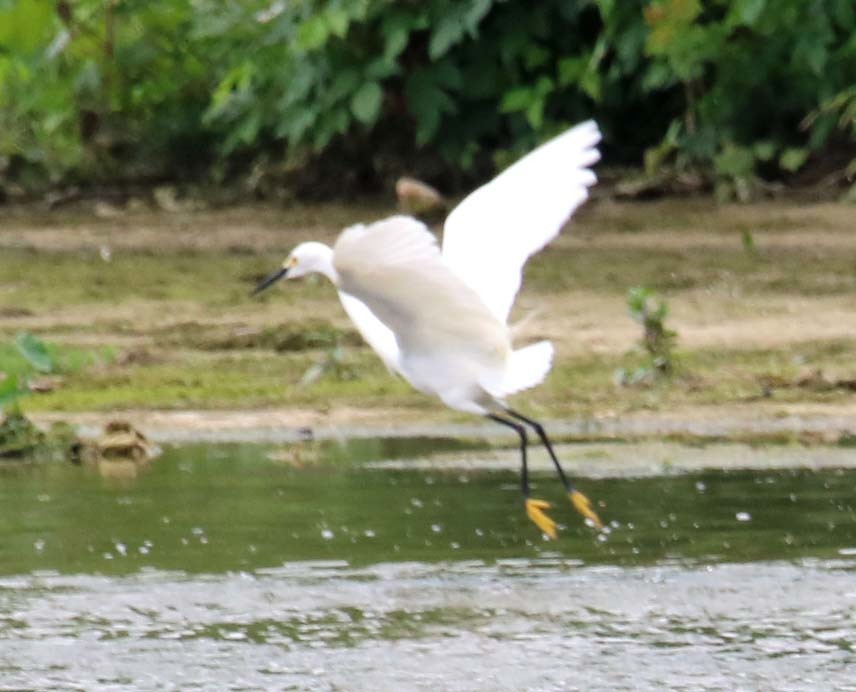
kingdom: Animalia
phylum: Chordata
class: Aves
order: Pelecaniformes
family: Ardeidae
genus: Egretta
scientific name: Egretta thula
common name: Snowy egret
